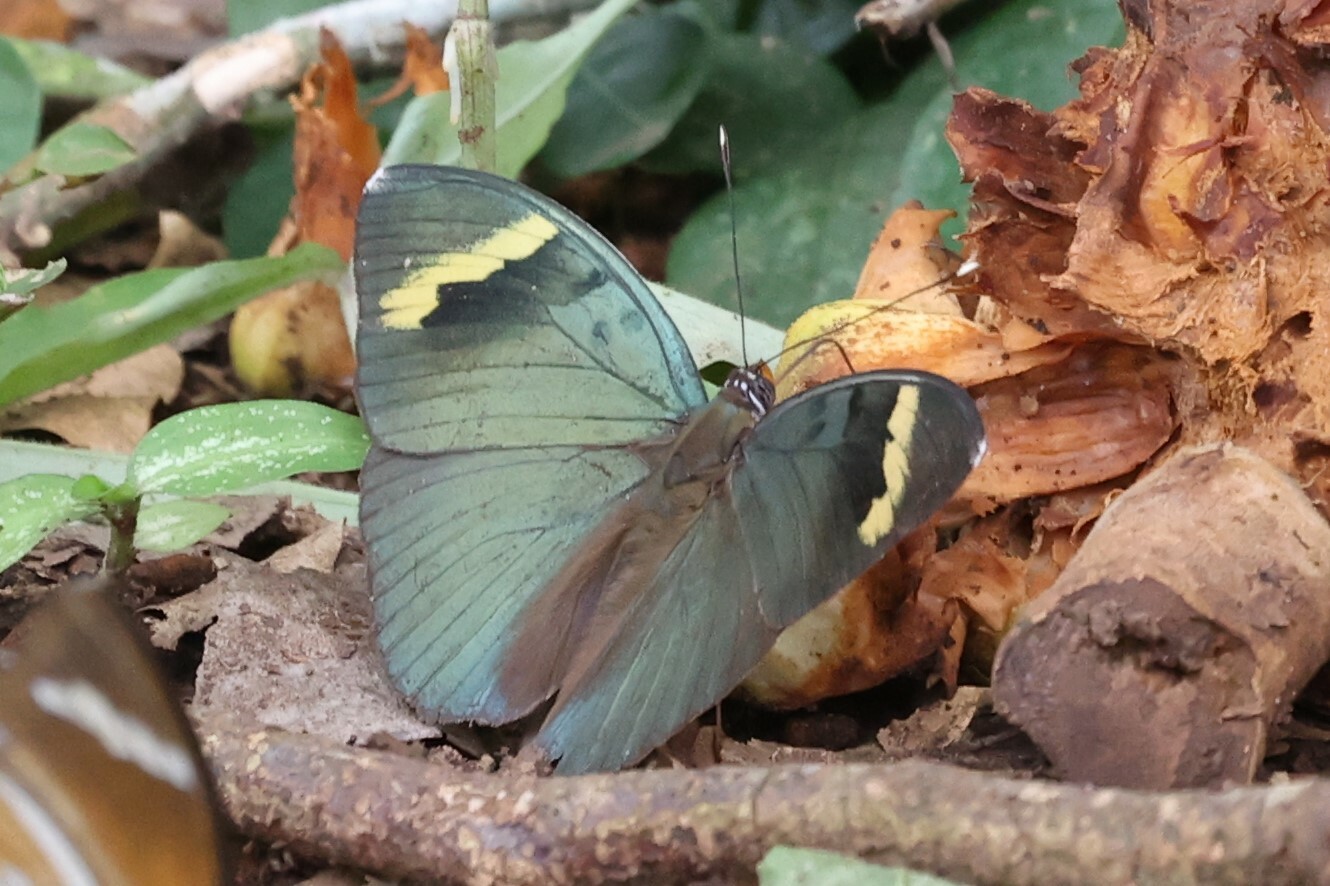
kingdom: Animalia
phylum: Arthropoda
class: Insecta
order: Lepidoptera
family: Nymphalidae
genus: Euphaedra
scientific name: Euphaedra medon
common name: Widespread forester
